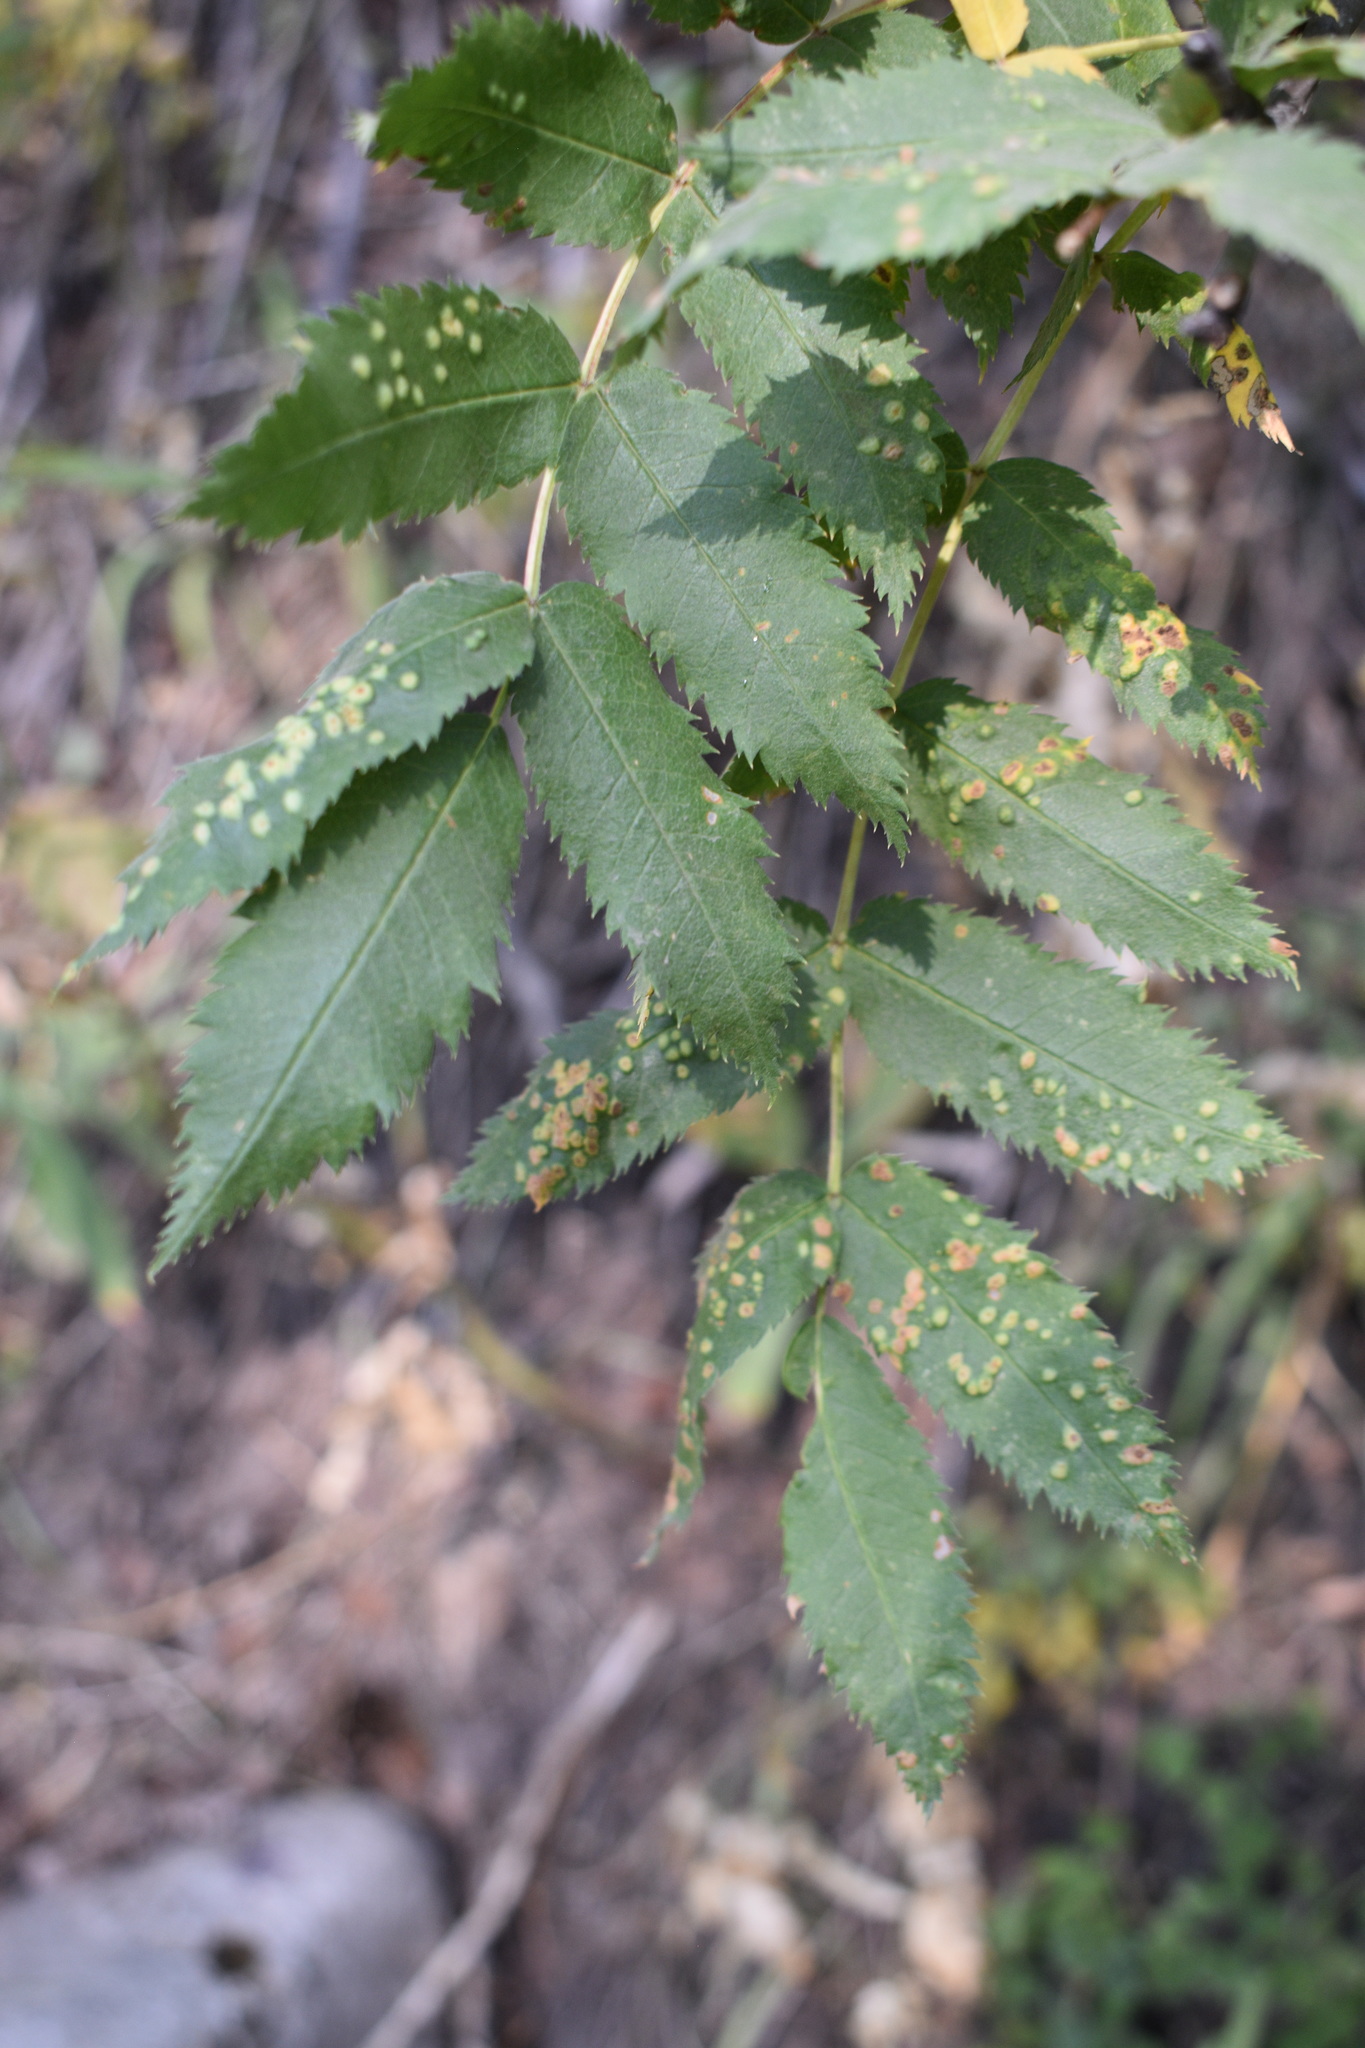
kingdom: Plantae
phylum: Tracheophyta
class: Magnoliopsida
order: Rosales
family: Rosaceae
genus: Sorbus
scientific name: Sorbus scopulina
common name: Greene's mountain-ash
